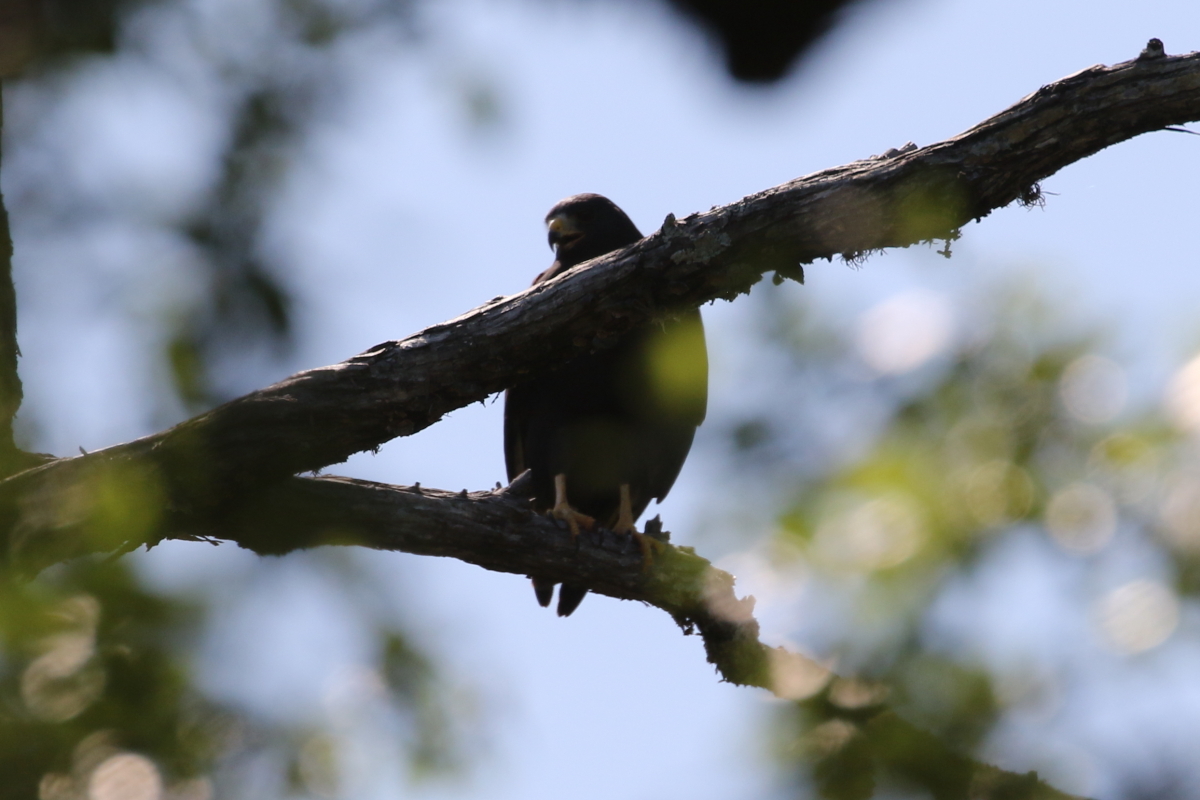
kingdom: Animalia
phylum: Chordata
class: Aves
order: Accipitriformes
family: Accipitridae
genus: Buteo
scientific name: Buteo albonotatus
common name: Zone-tailed hawk
